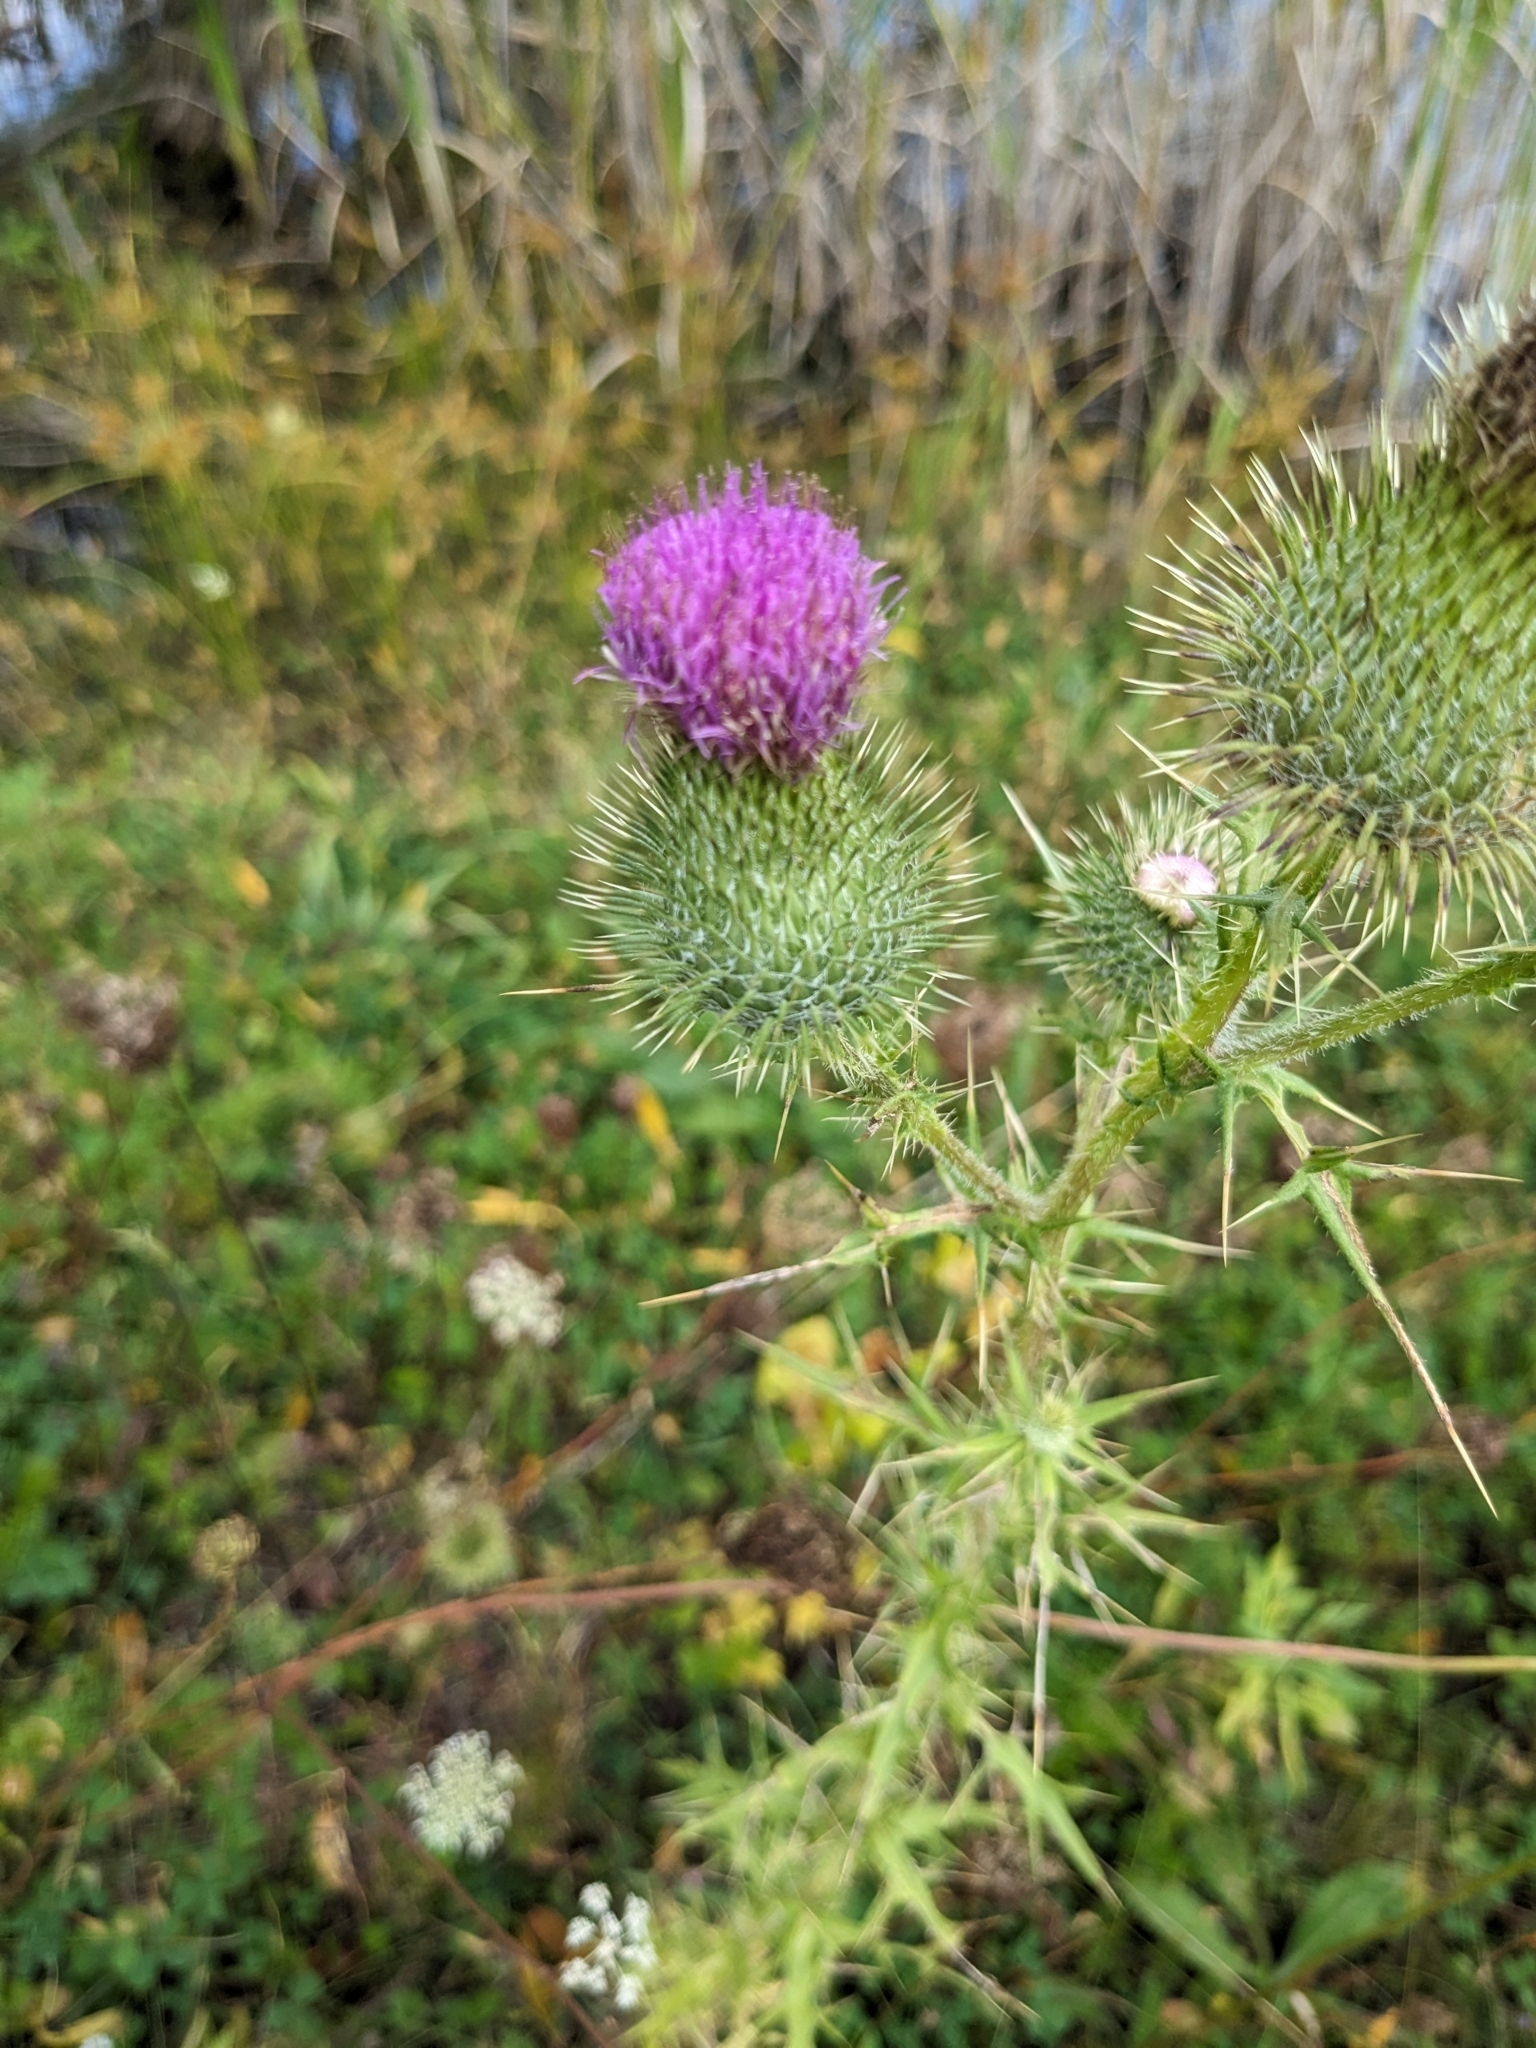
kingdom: Plantae
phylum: Tracheophyta
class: Magnoliopsida
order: Asterales
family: Asteraceae
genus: Cirsium
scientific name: Cirsium vulgare
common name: Bull thistle
